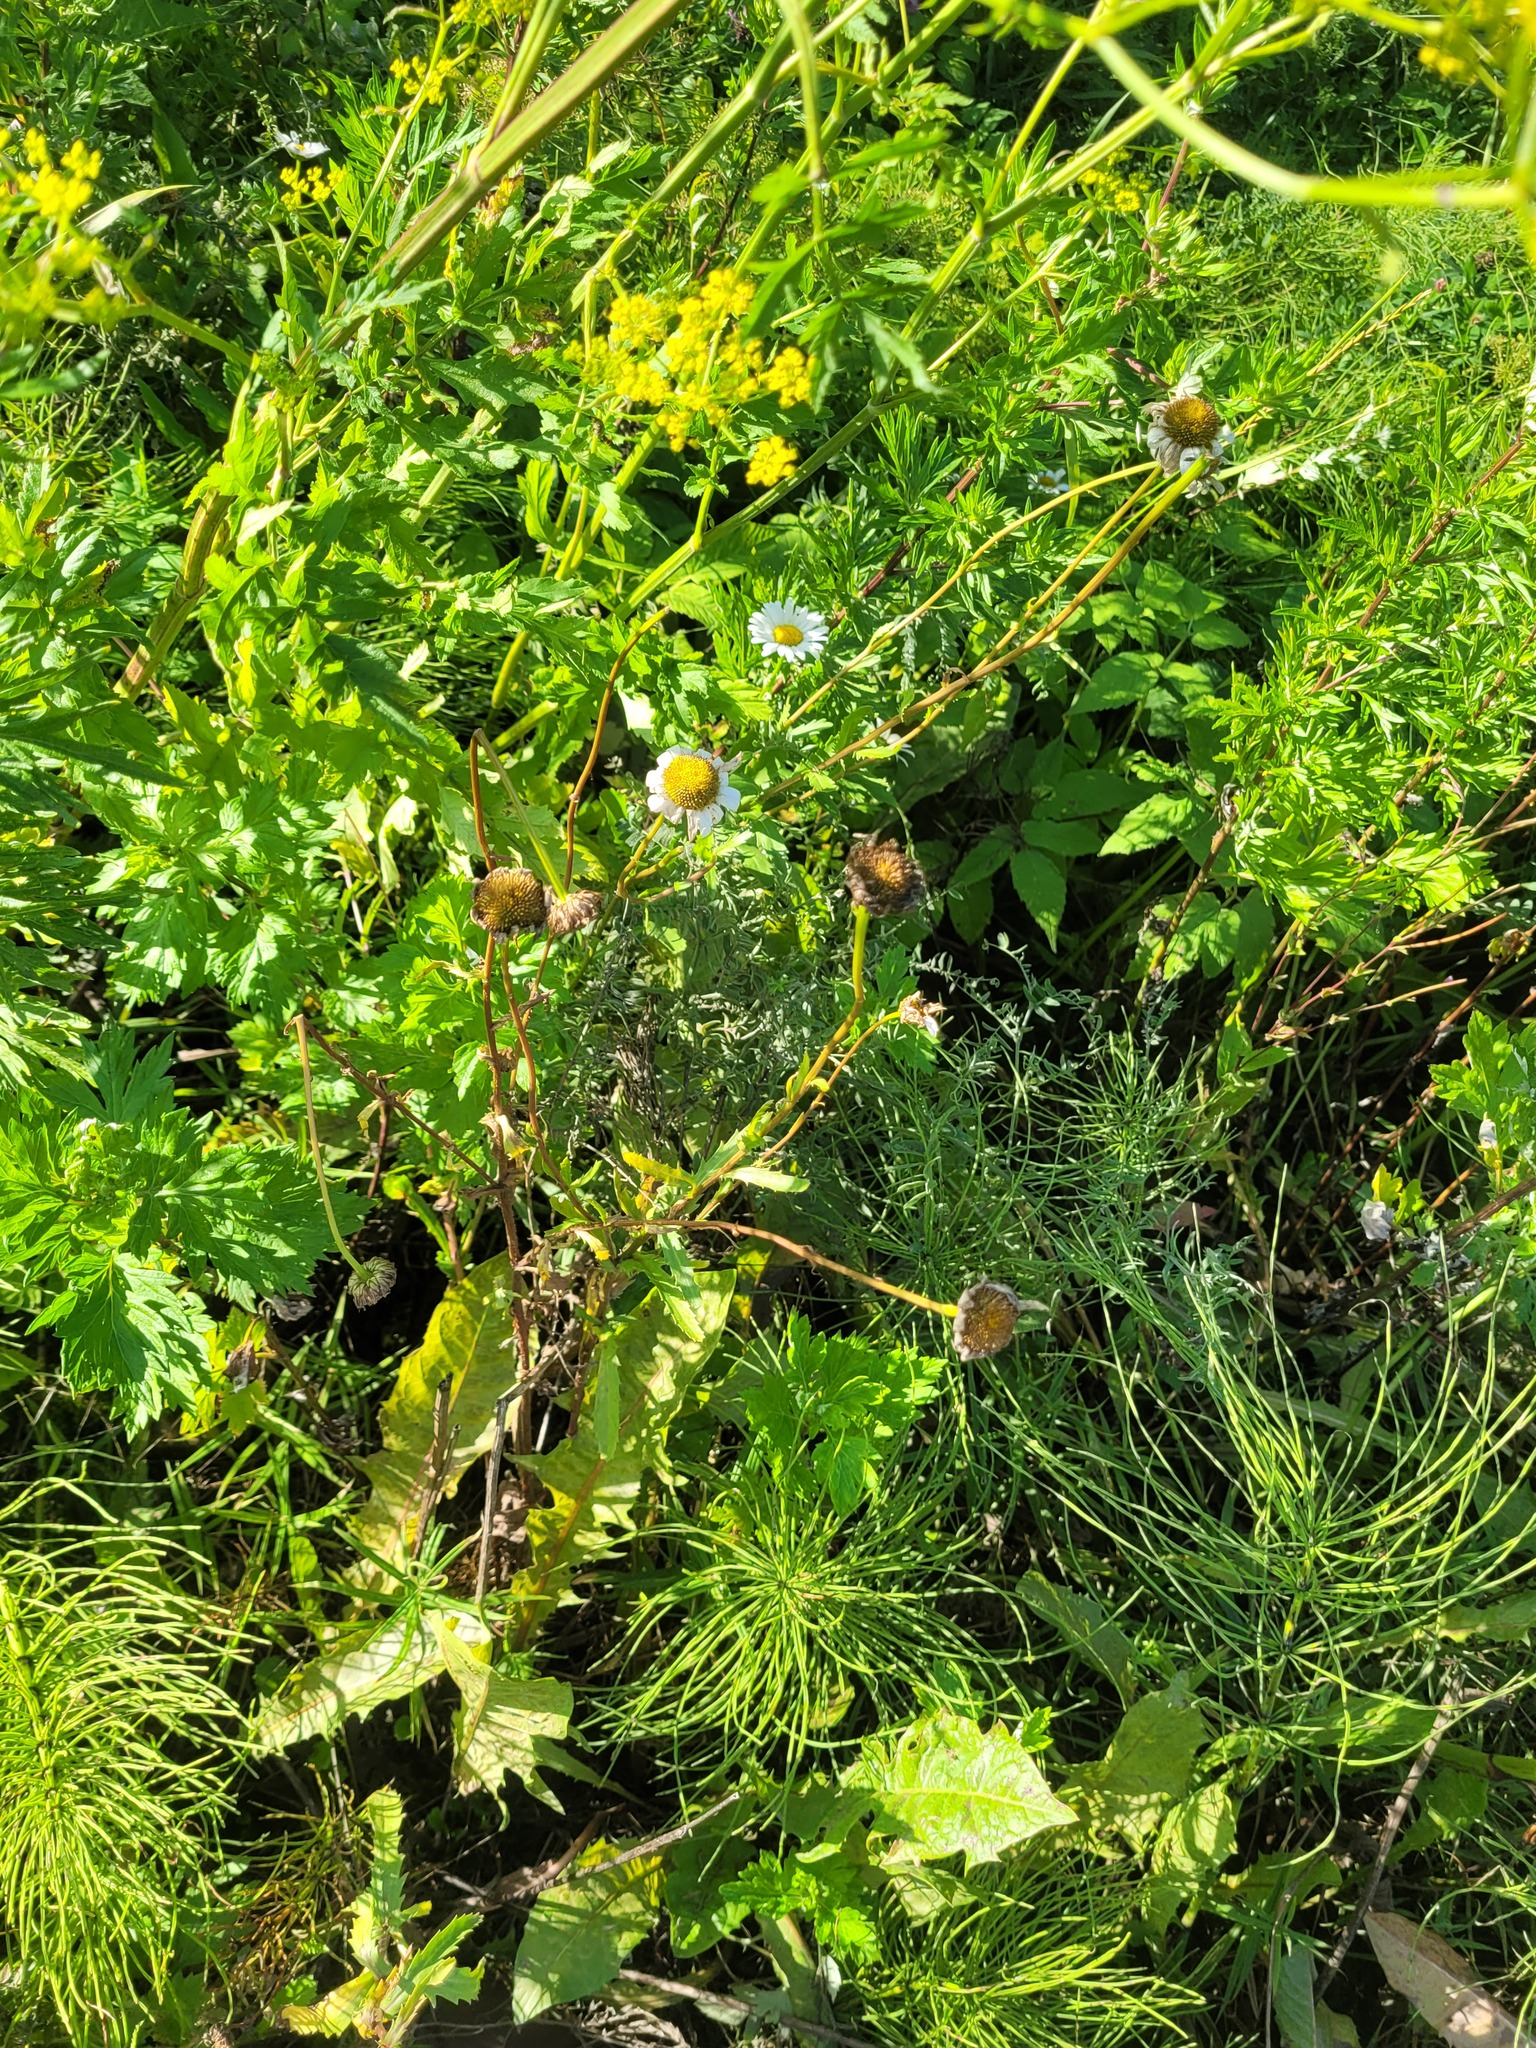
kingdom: Plantae
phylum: Tracheophyta
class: Magnoliopsida
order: Asterales
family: Asteraceae
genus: Leucanthemum
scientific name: Leucanthemum vulgare
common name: Oxeye daisy
